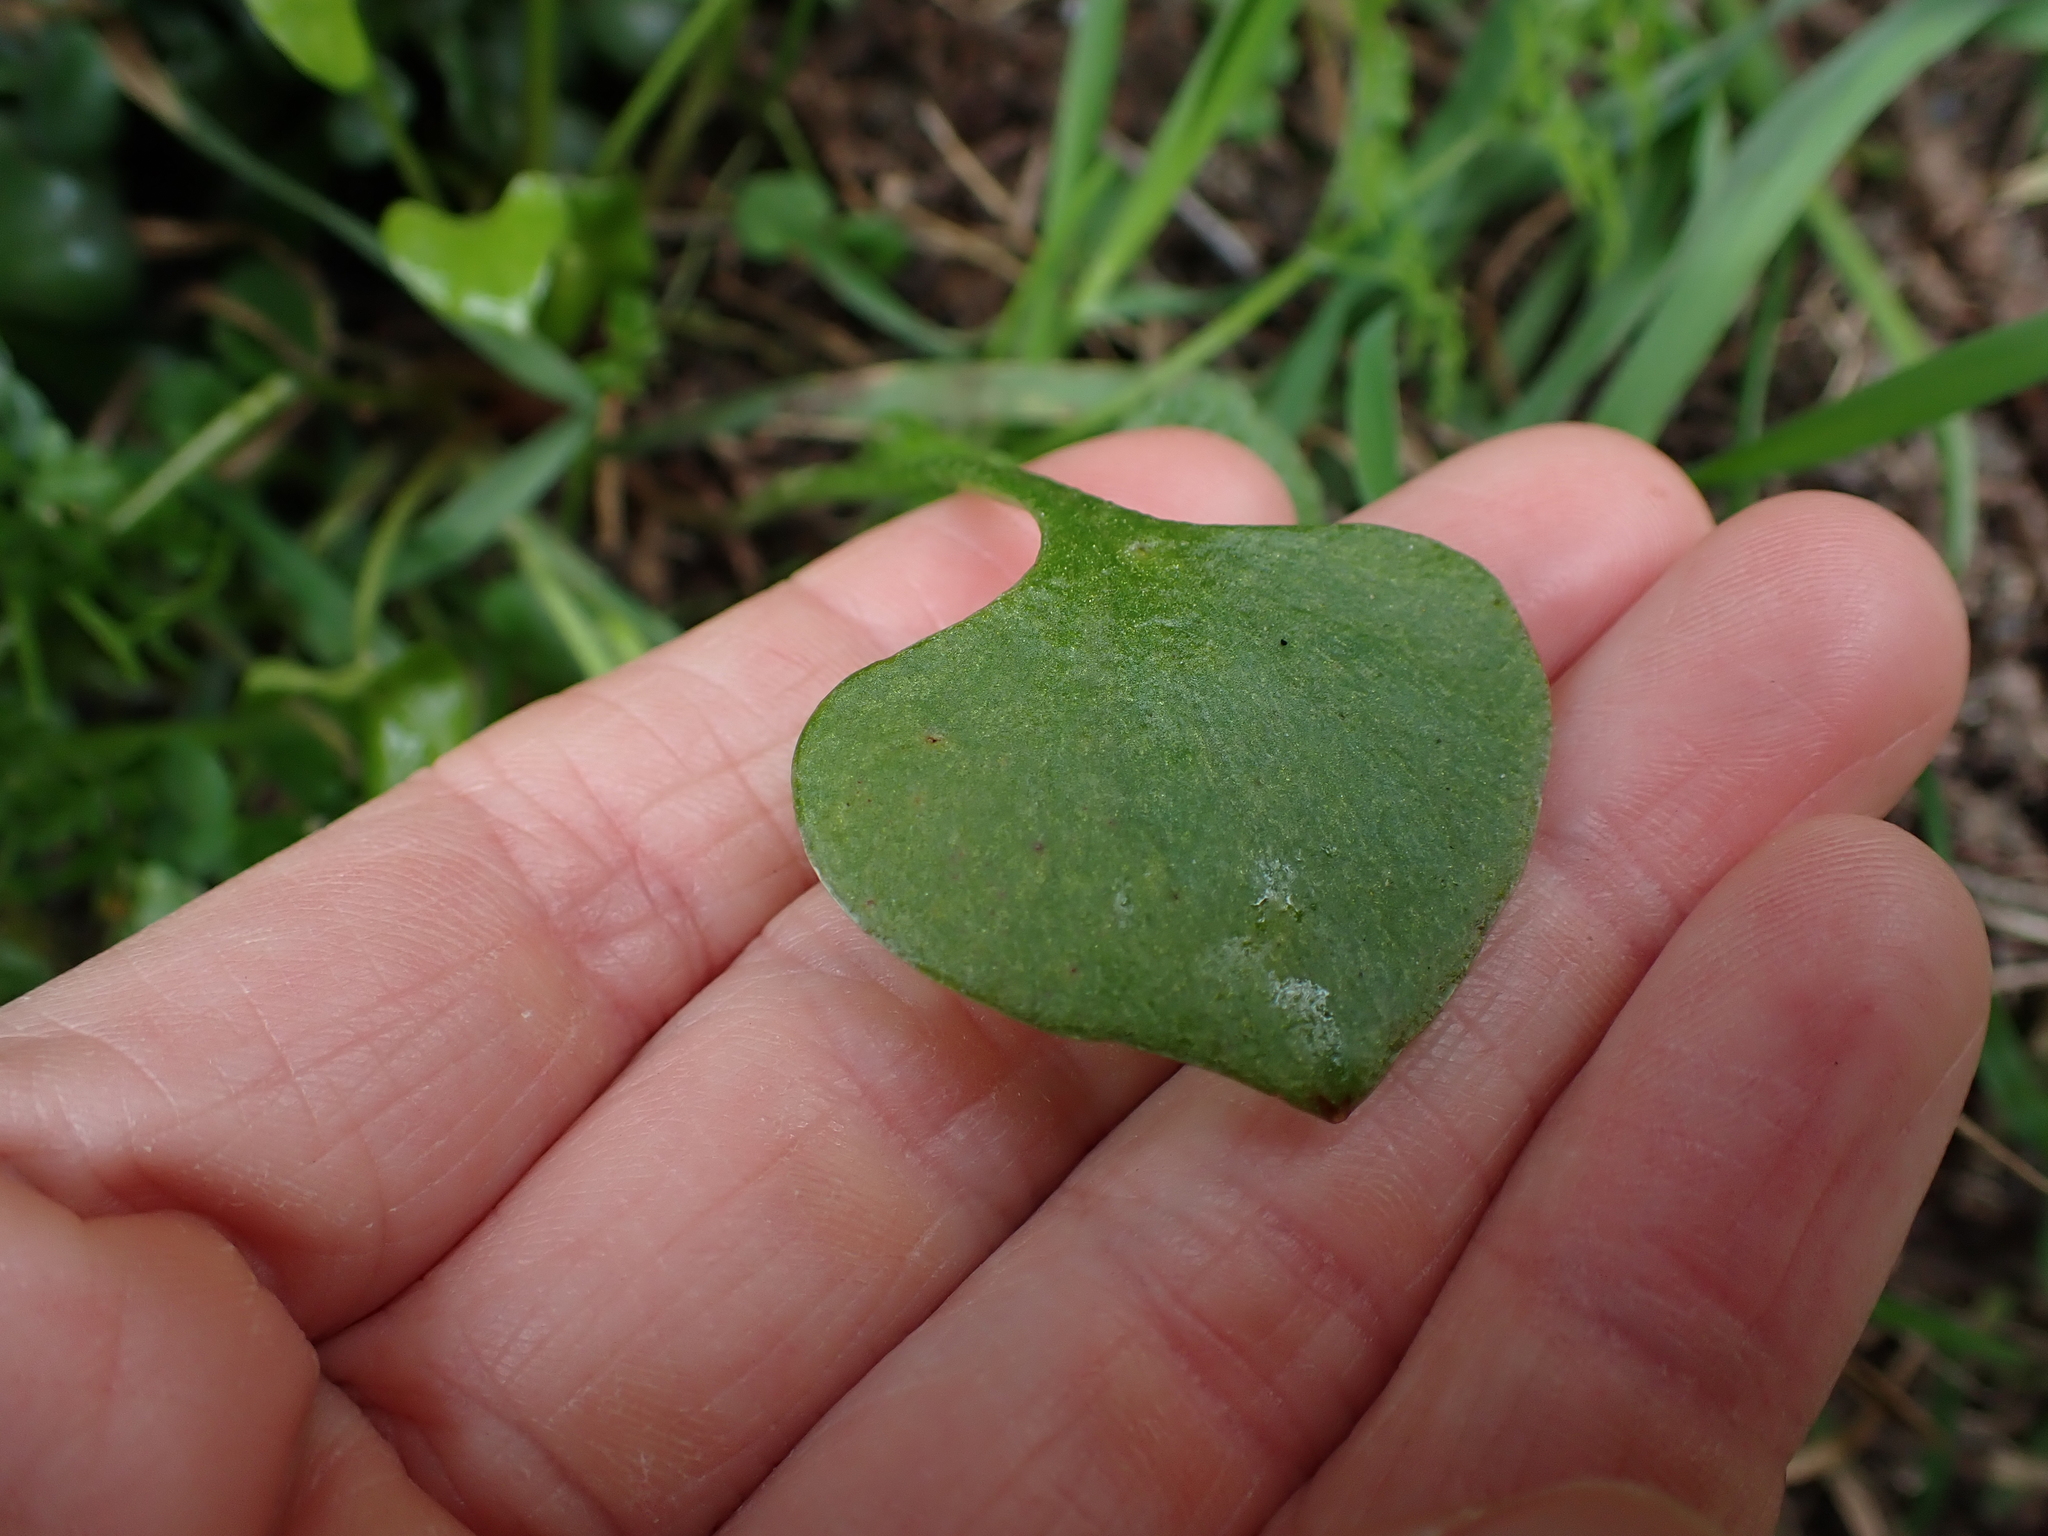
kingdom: Plantae
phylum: Tracheophyta
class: Magnoliopsida
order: Caryophyllales
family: Montiaceae
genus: Claytonia
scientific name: Claytonia perfoliata
